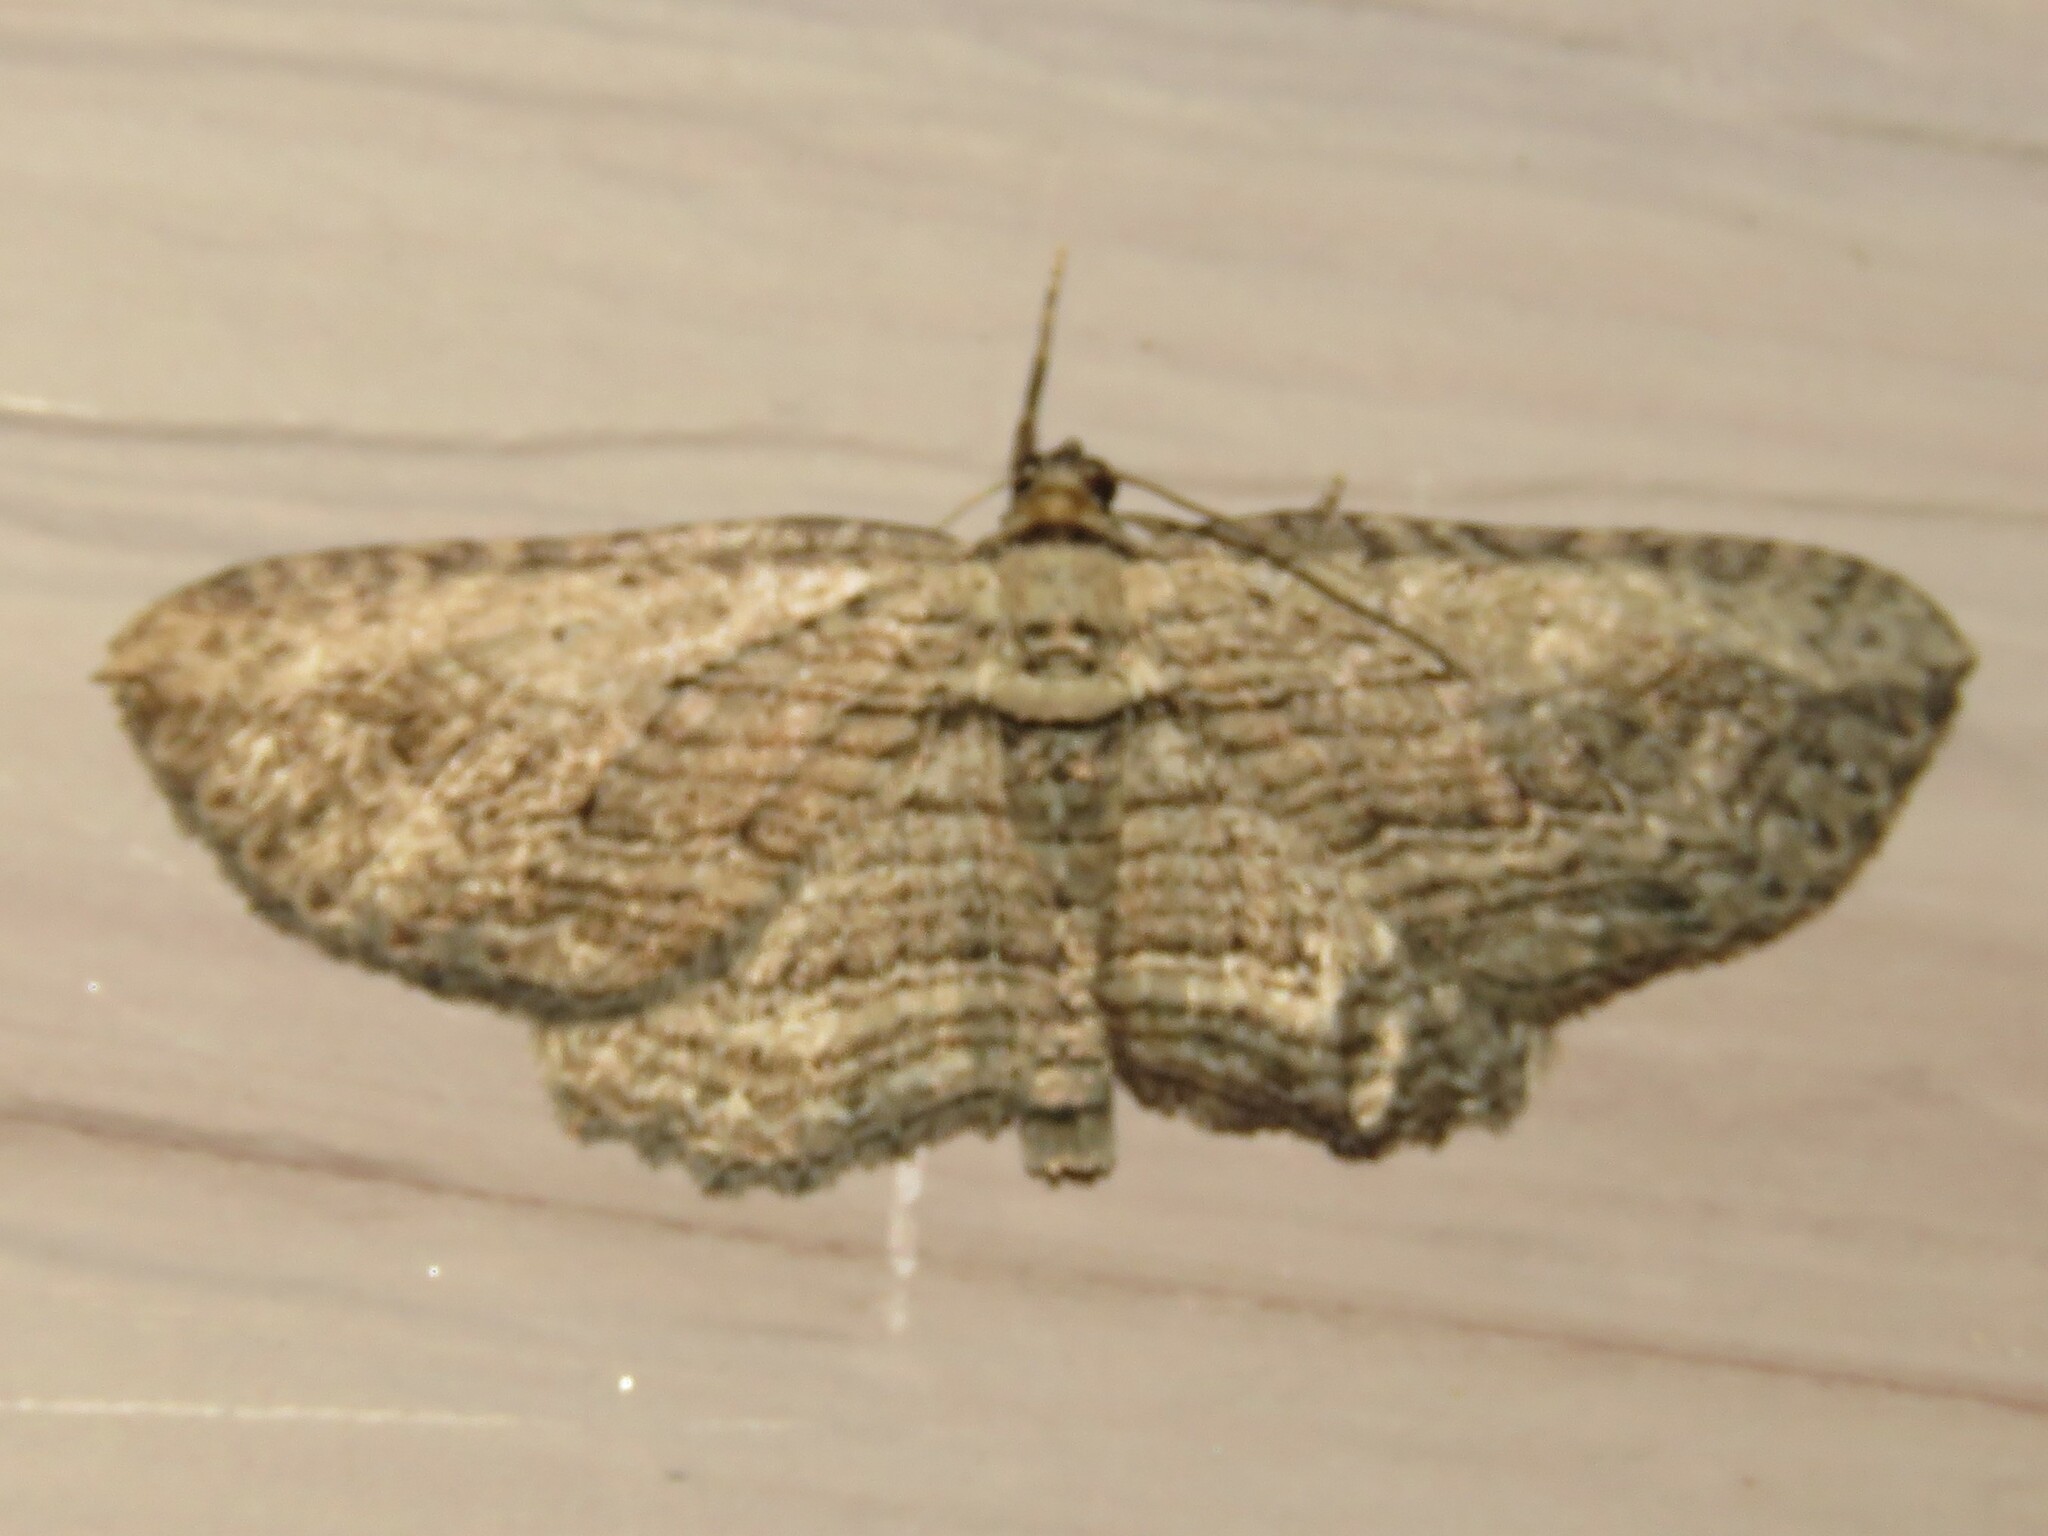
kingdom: Animalia
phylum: Arthropoda
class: Insecta
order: Lepidoptera
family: Geometridae
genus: Horisme
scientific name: Horisme intestinata
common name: Brown bark carpet
